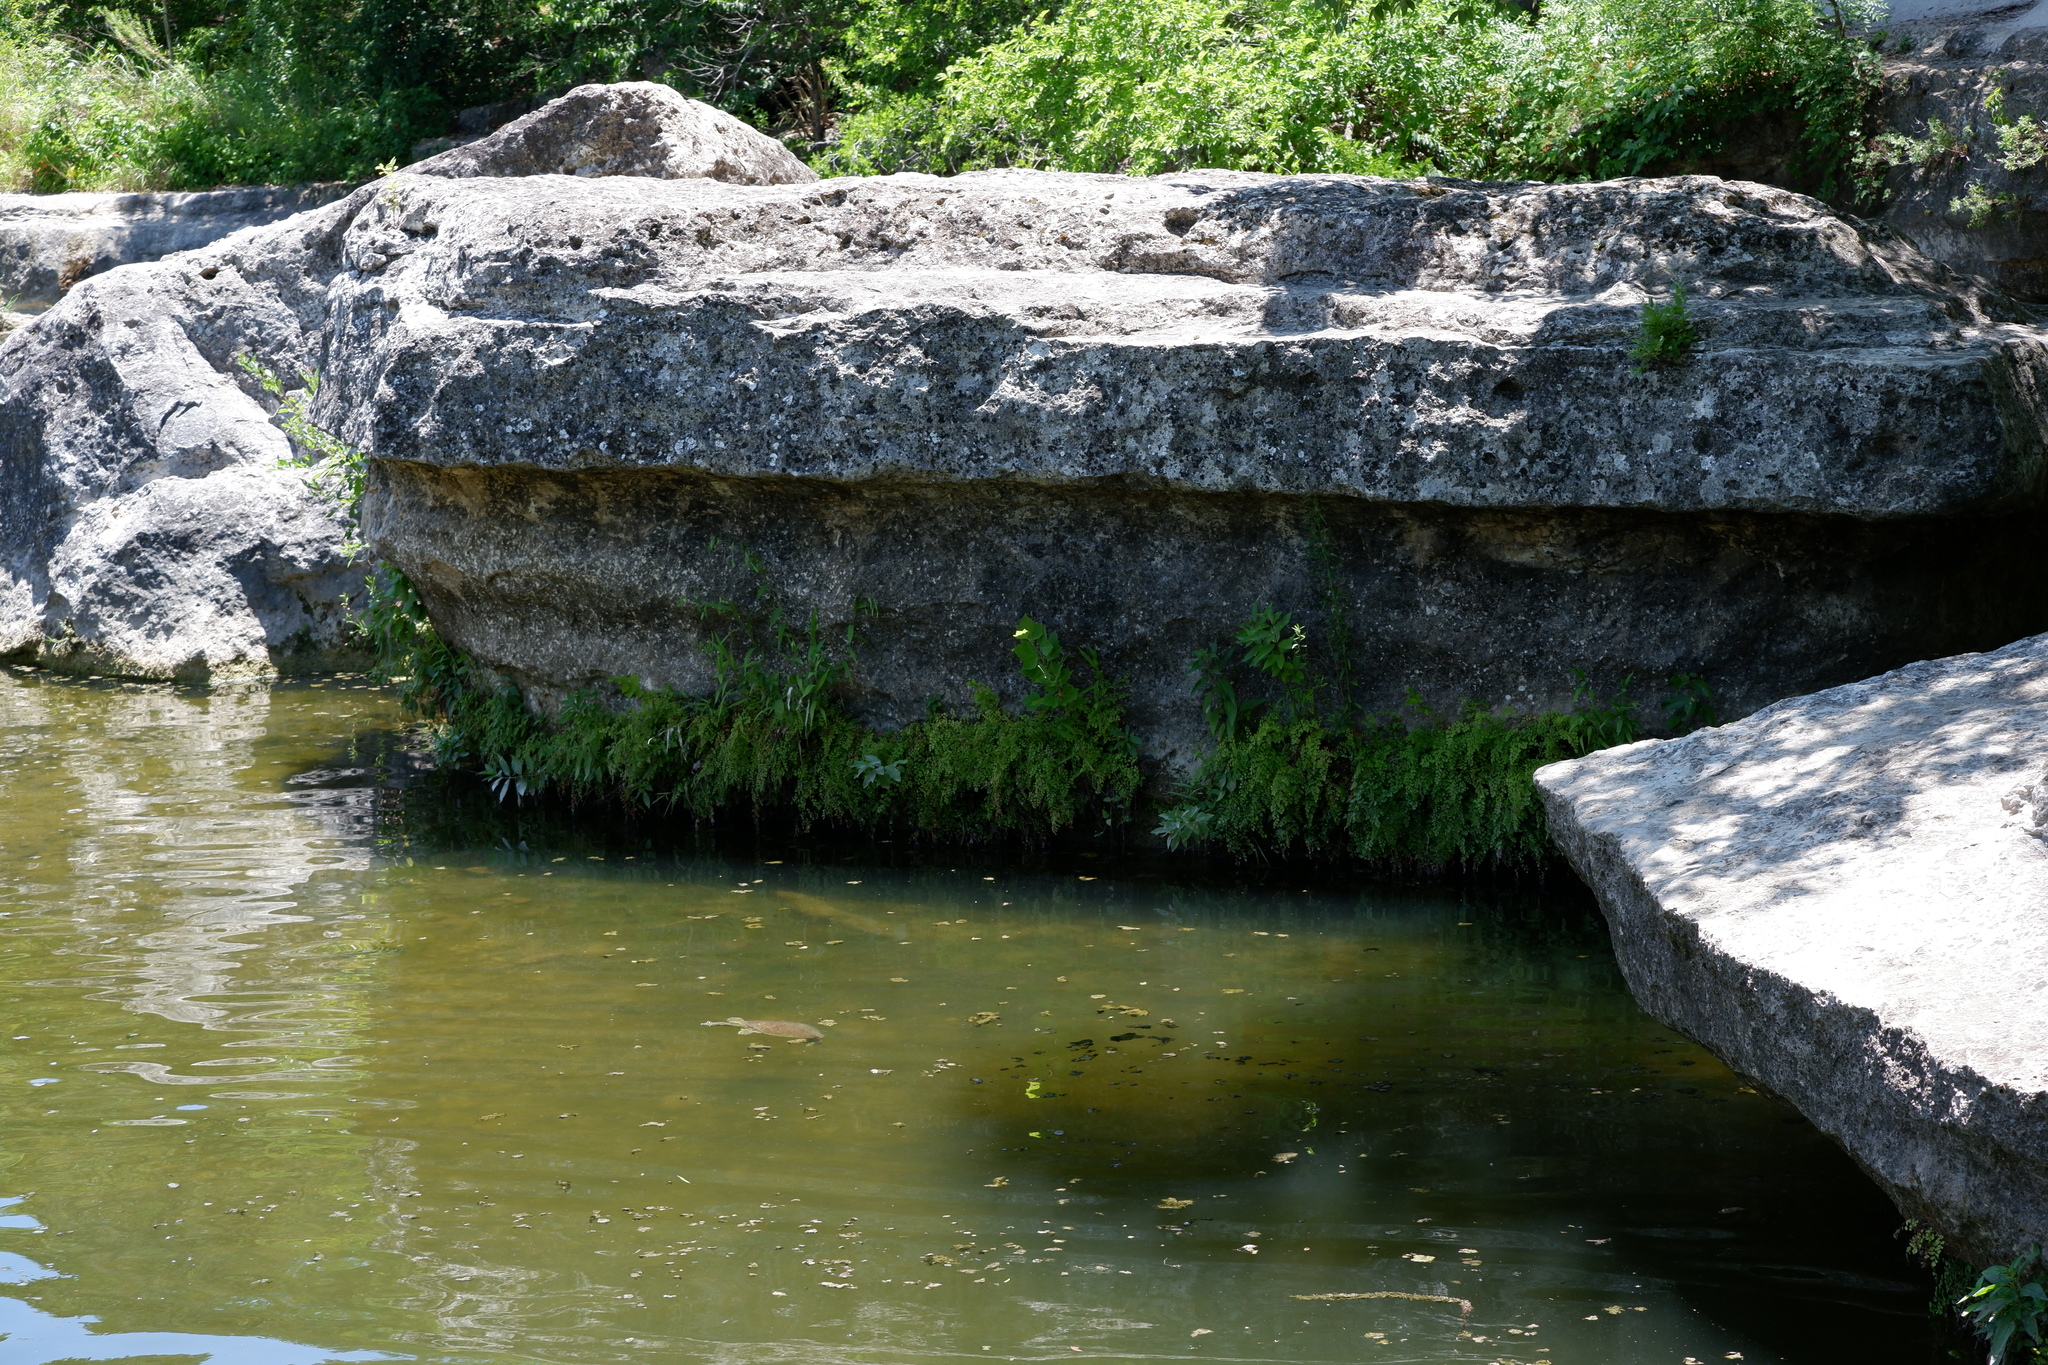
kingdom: Plantae
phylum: Tracheophyta
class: Polypodiopsida
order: Polypodiales
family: Pteridaceae
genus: Adiantum
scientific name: Adiantum capillus-veneris
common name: Maidenhair fern
